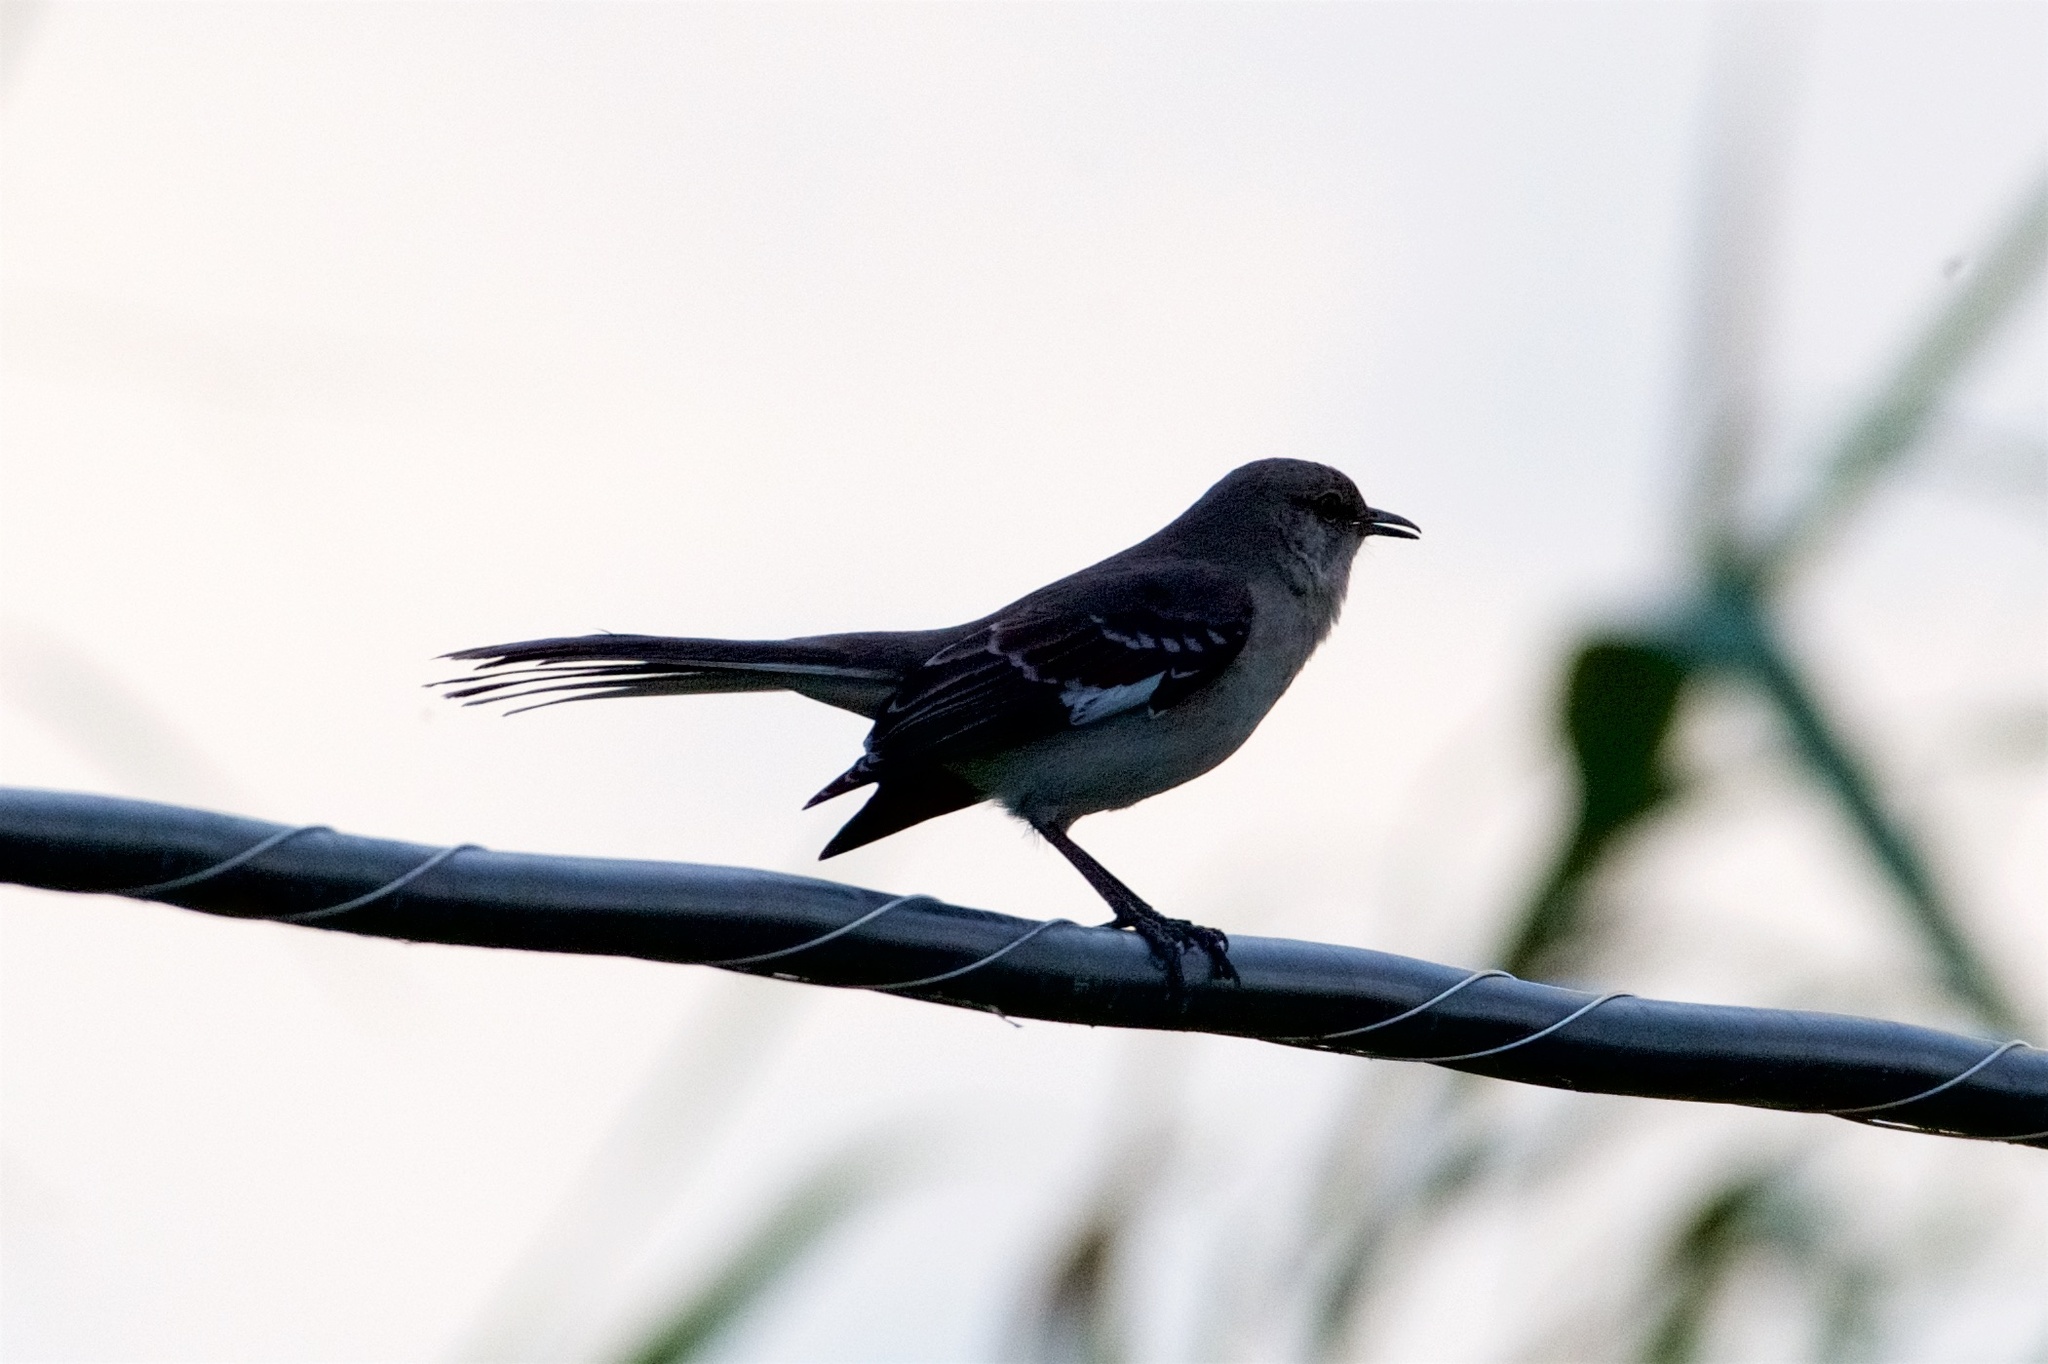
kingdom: Animalia
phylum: Chordata
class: Aves
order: Passeriformes
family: Mimidae
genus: Mimus
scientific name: Mimus polyglottos
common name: Northern mockingbird
